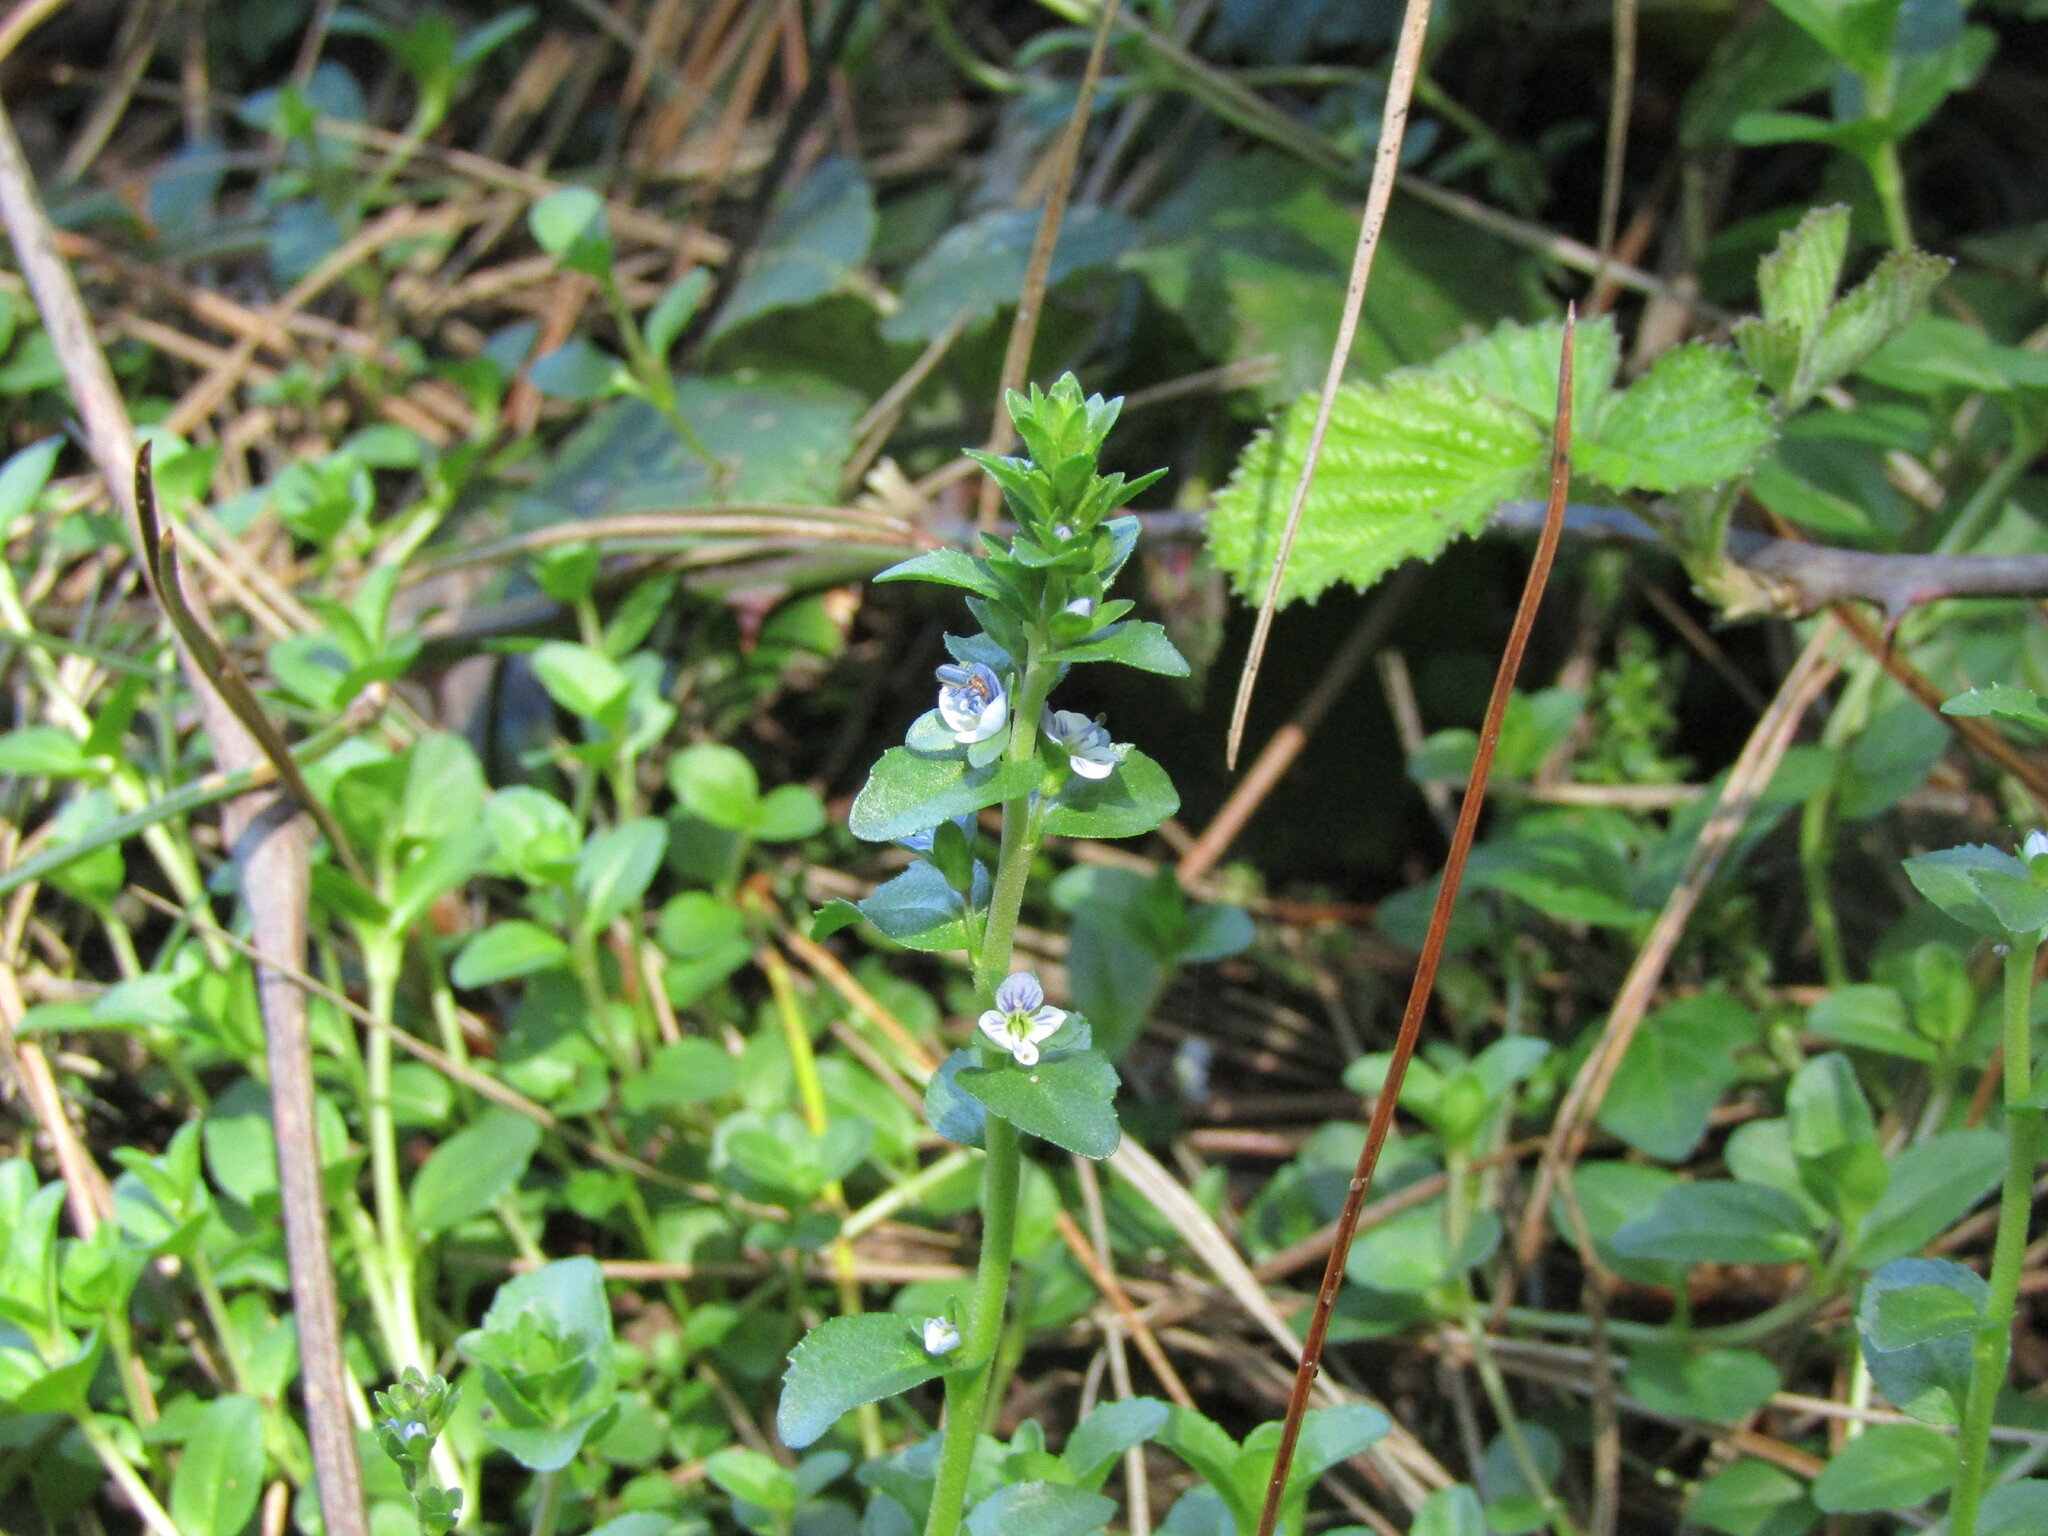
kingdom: Plantae
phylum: Tracheophyta
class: Magnoliopsida
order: Lamiales
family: Plantaginaceae
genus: Veronica
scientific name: Veronica serpyllifolia
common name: Thyme-leaved speedwell
